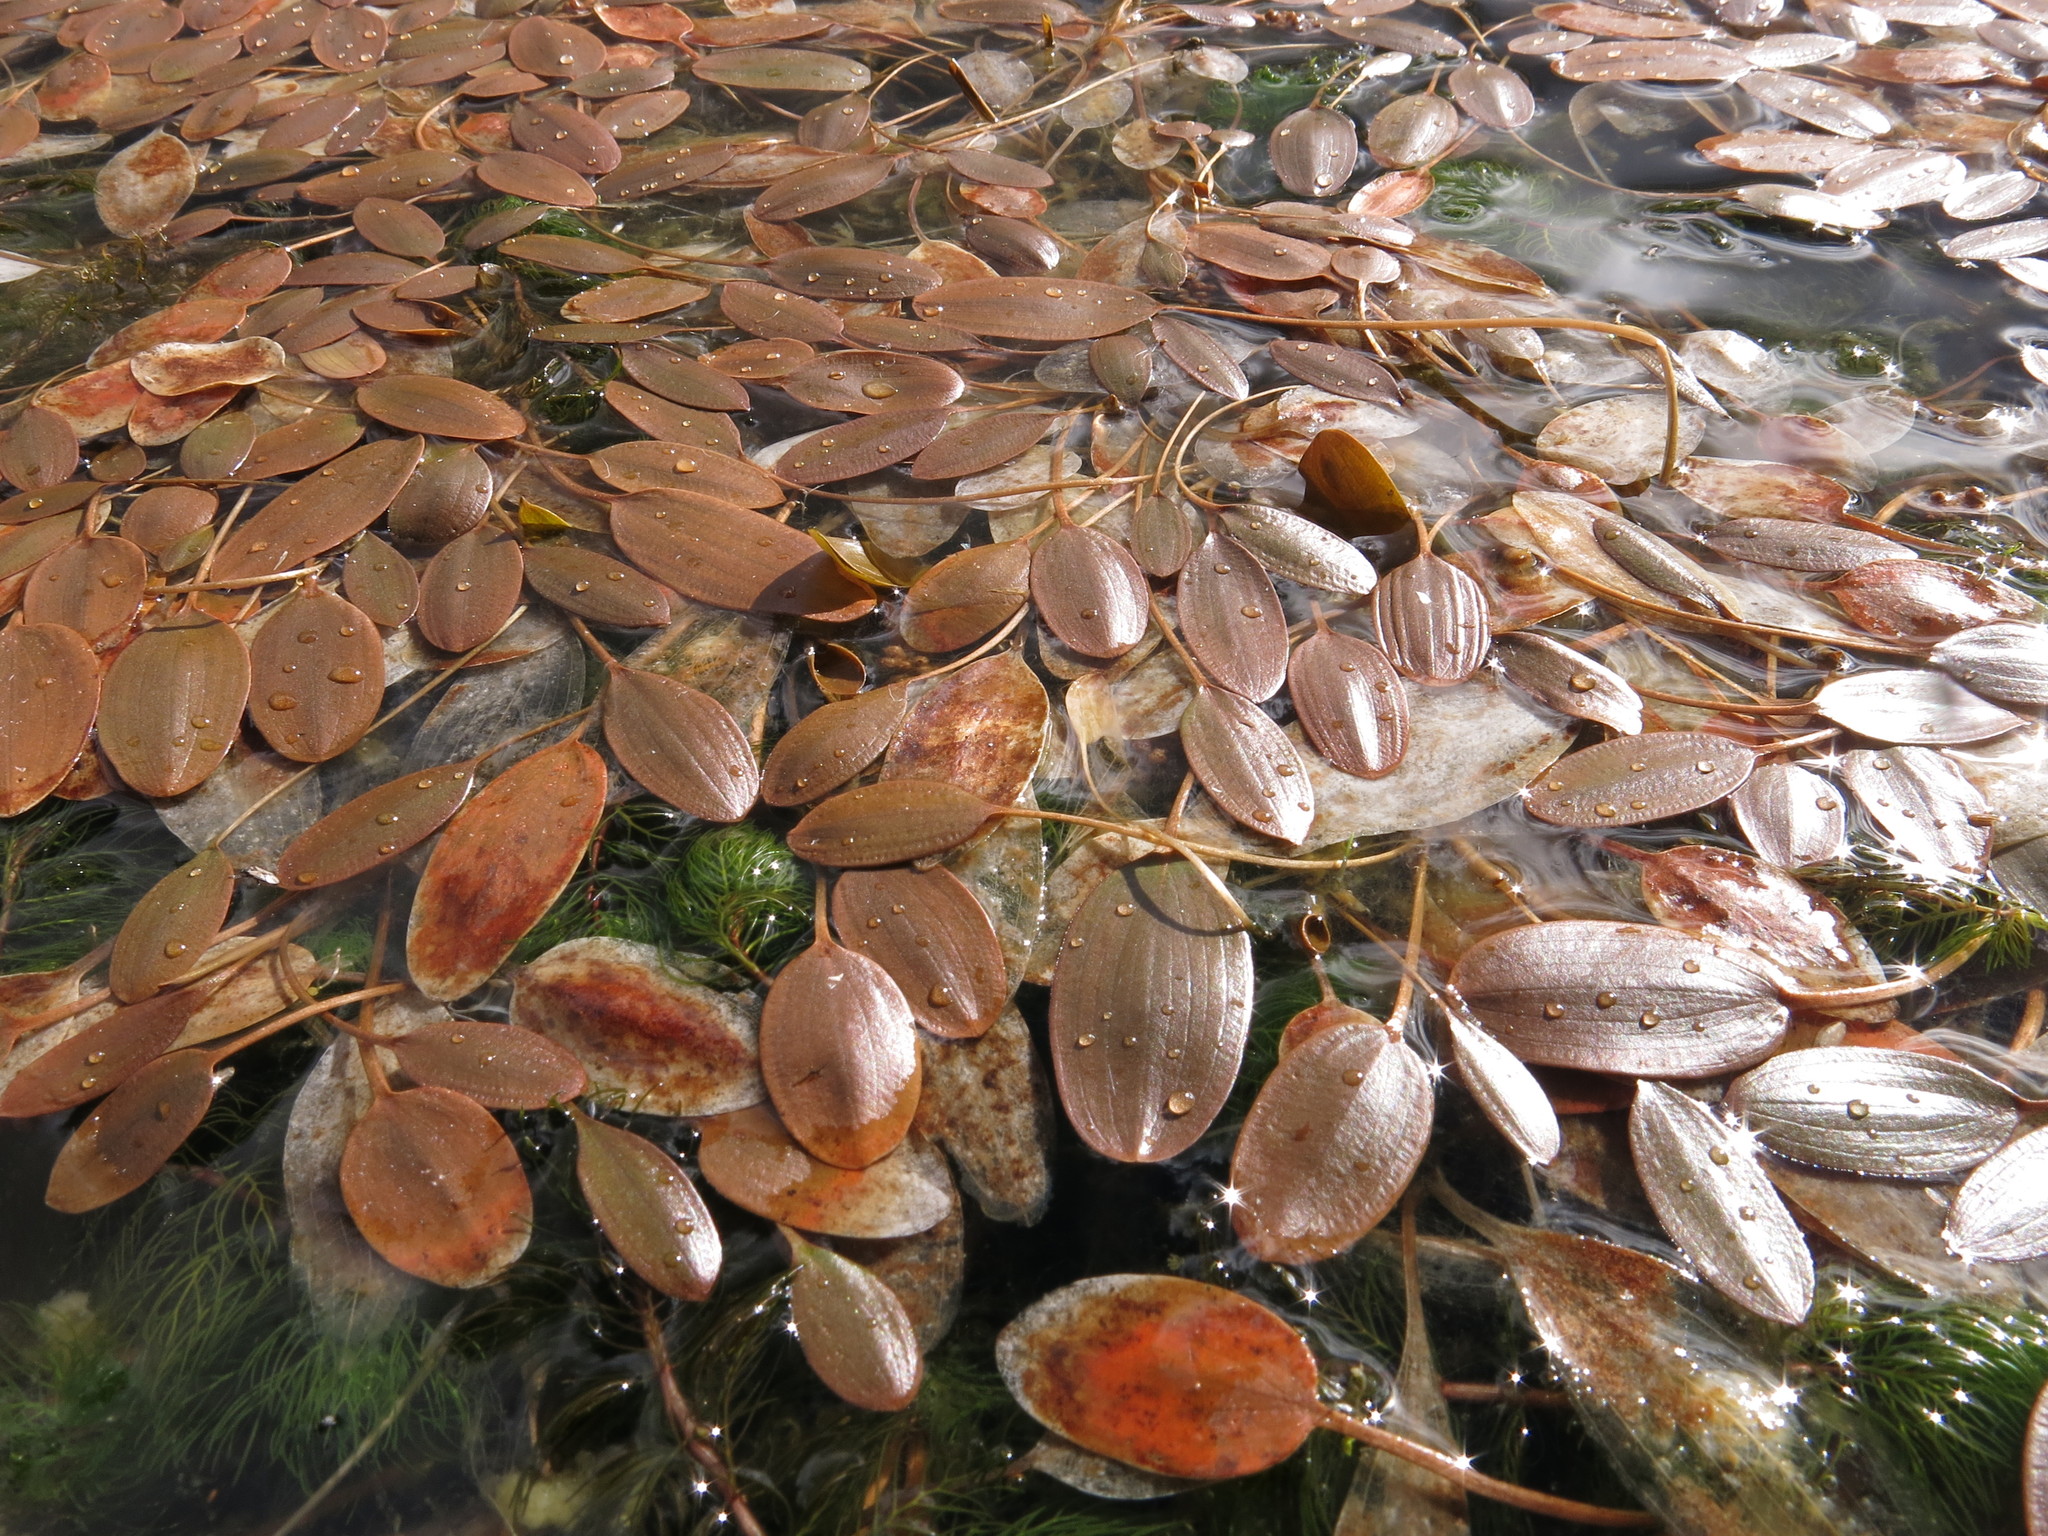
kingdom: Plantae
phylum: Tracheophyta
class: Liliopsida
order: Alismatales
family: Potamogetonaceae
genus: Potamogeton
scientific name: Potamogeton cheesemanii
